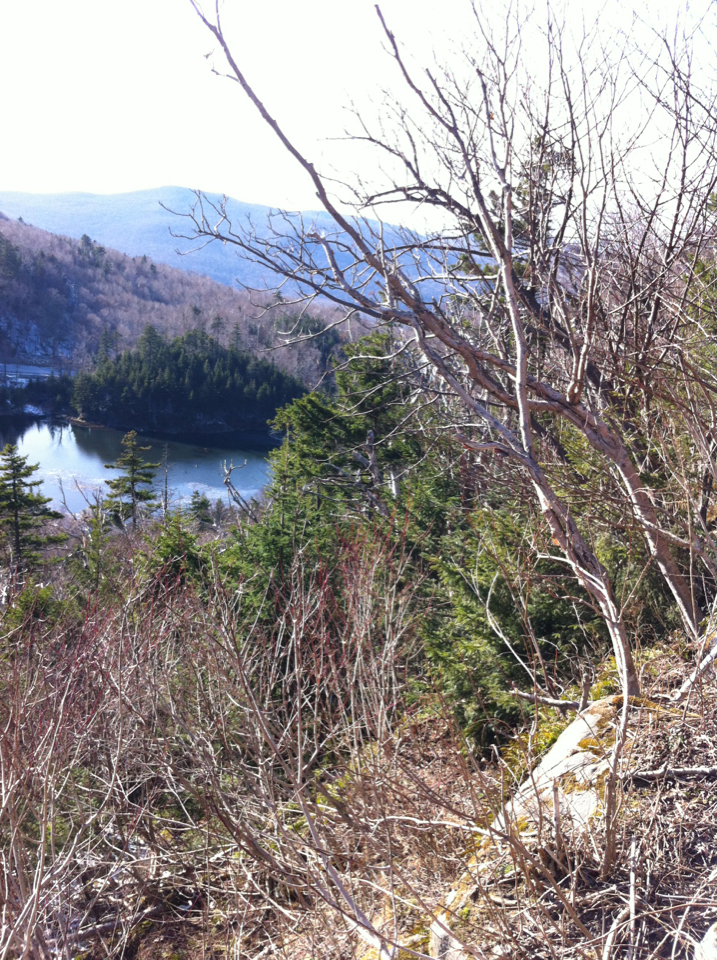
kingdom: Plantae
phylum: Tracheophyta
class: Pinopsida
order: Pinales
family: Pinaceae
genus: Picea
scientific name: Picea rubens
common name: Red spruce
